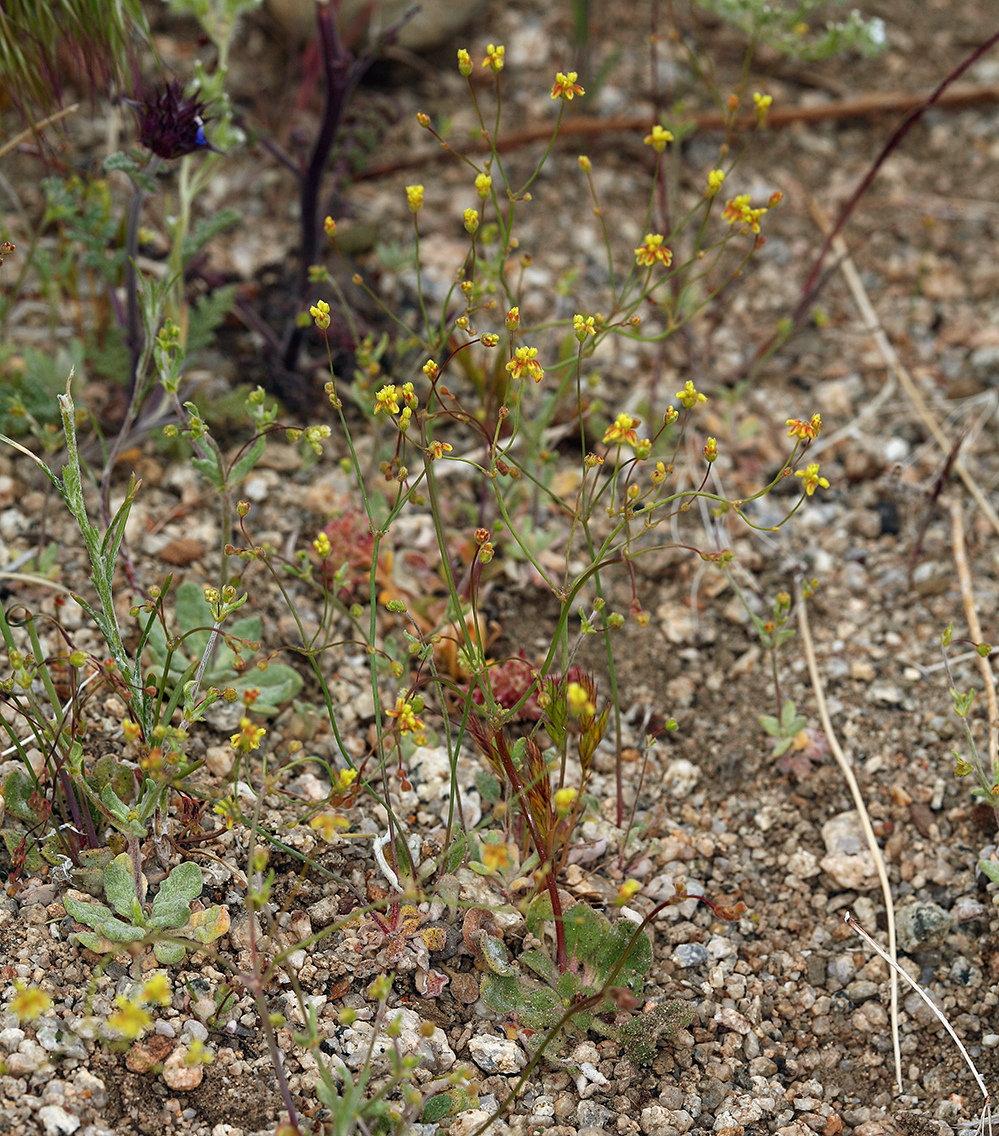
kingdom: Plantae
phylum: Tracheophyta
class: Magnoliopsida
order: Caryophyllales
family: Polygonaceae
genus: Eriogonum
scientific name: Eriogonum pusillum
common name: Yellow turbans
